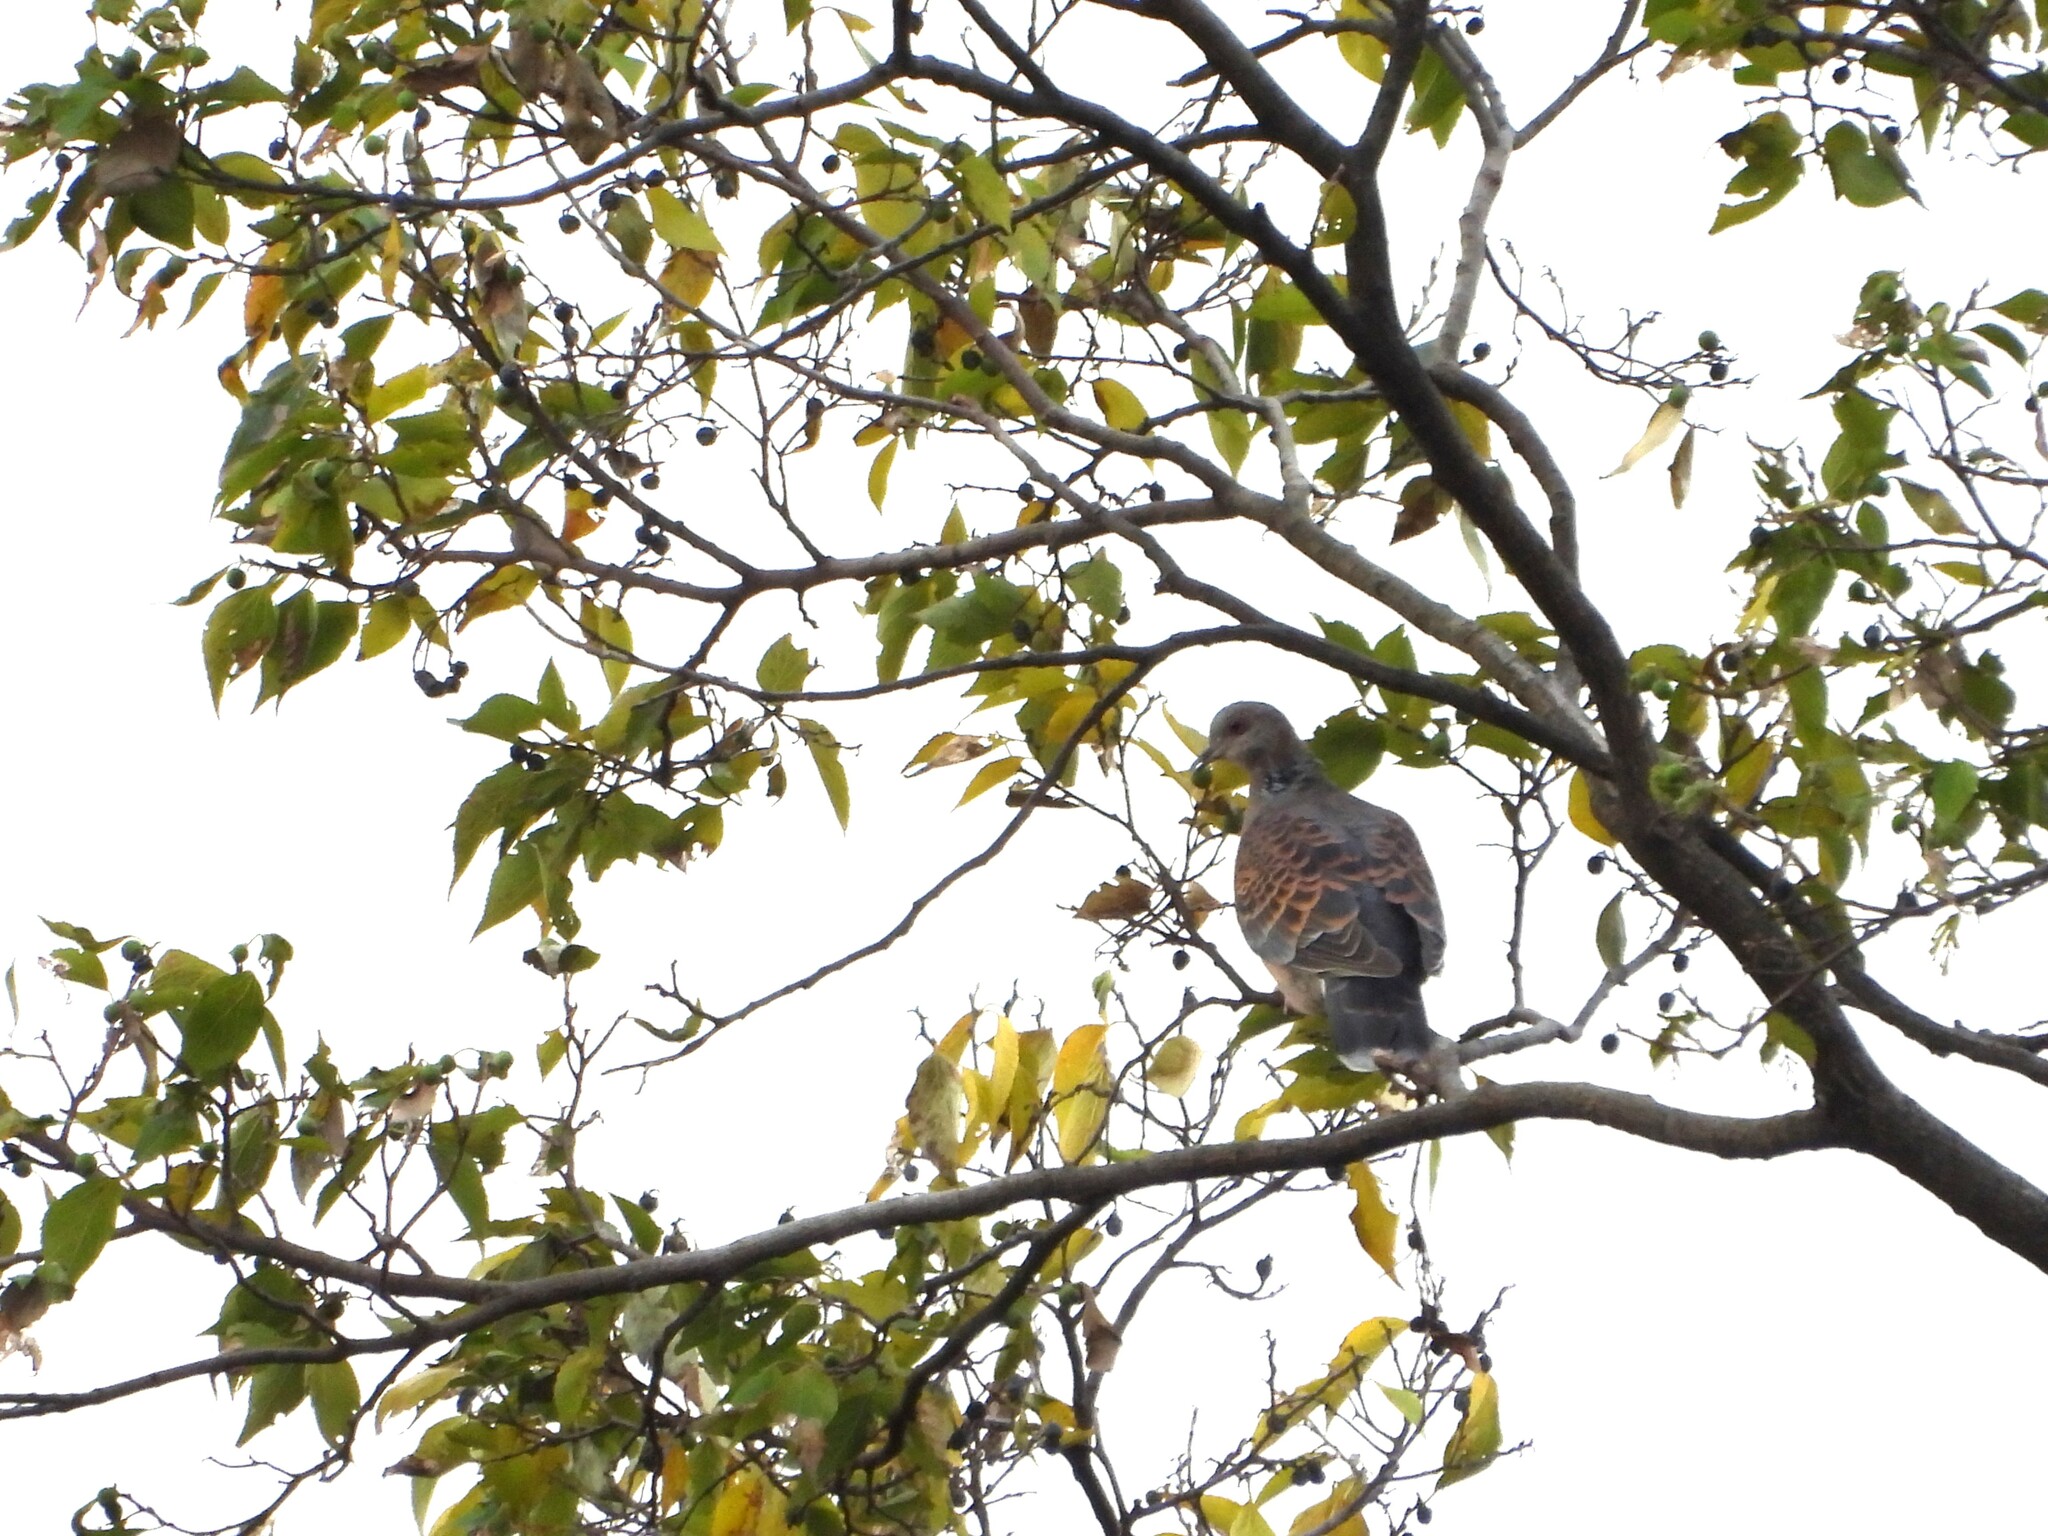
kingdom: Animalia
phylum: Chordata
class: Aves
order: Columbiformes
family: Columbidae
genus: Streptopelia
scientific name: Streptopelia orientalis
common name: Oriental turtle dove
